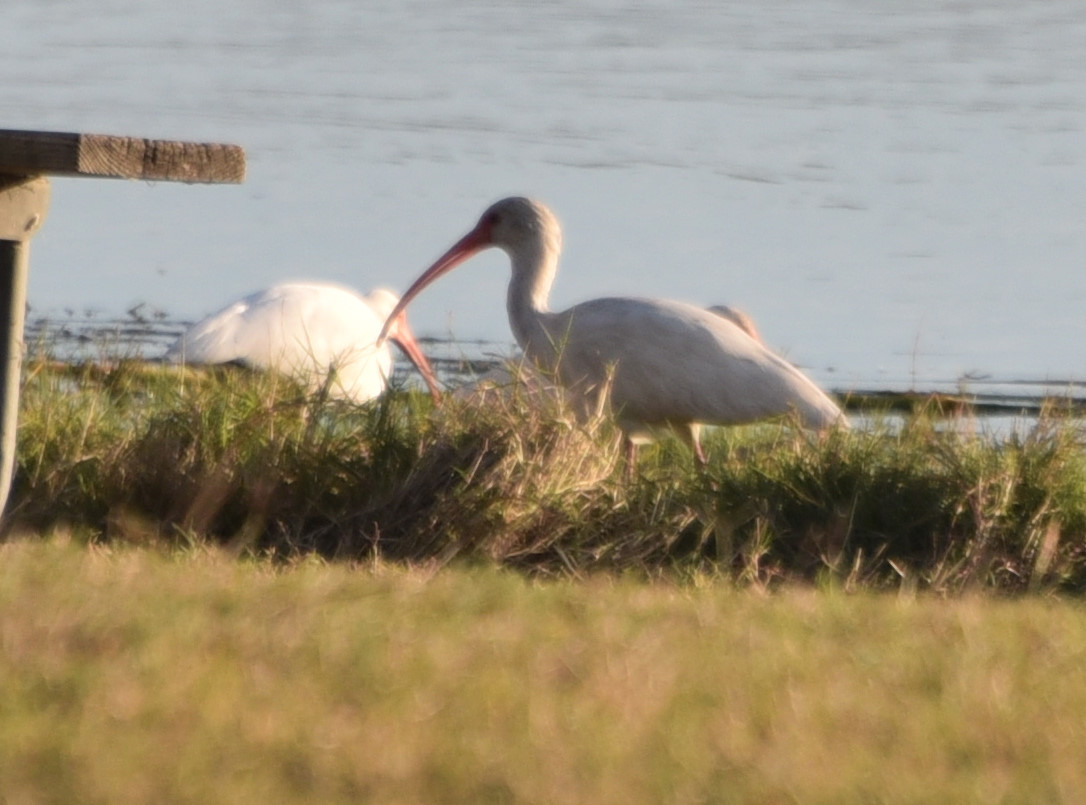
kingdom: Animalia
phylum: Chordata
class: Aves
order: Pelecaniformes
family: Threskiornithidae
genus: Eudocimus
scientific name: Eudocimus albus
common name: White ibis
